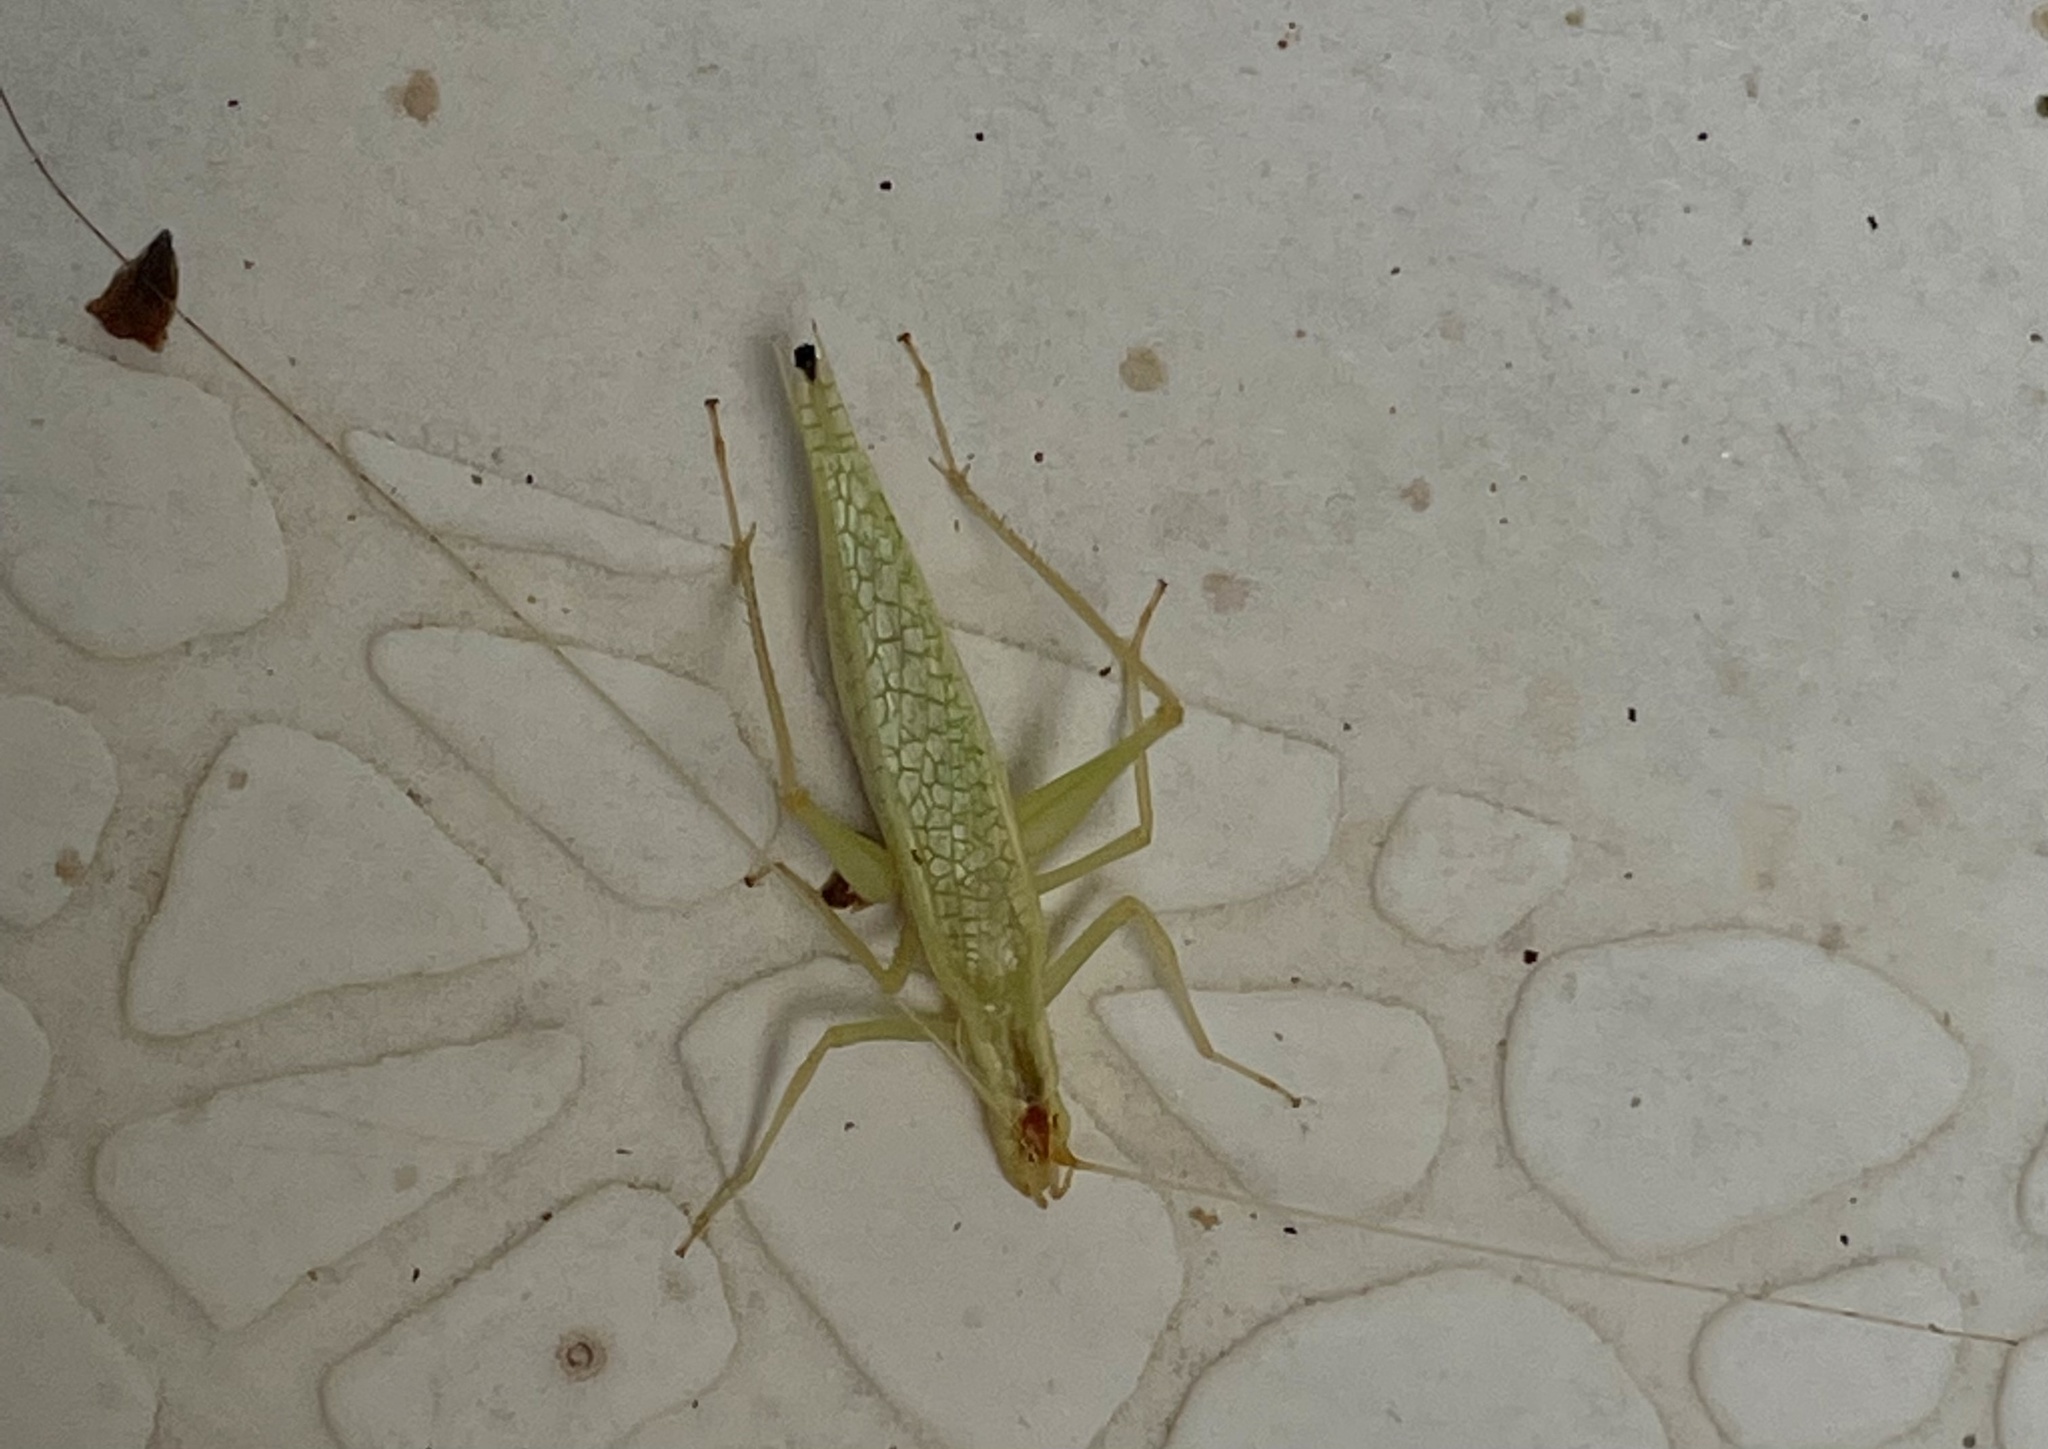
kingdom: Animalia
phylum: Arthropoda
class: Insecta
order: Orthoptera
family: Gryllidae
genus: Oecanthus
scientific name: Oecanthus niveus
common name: Narrow-winged tree cricket
